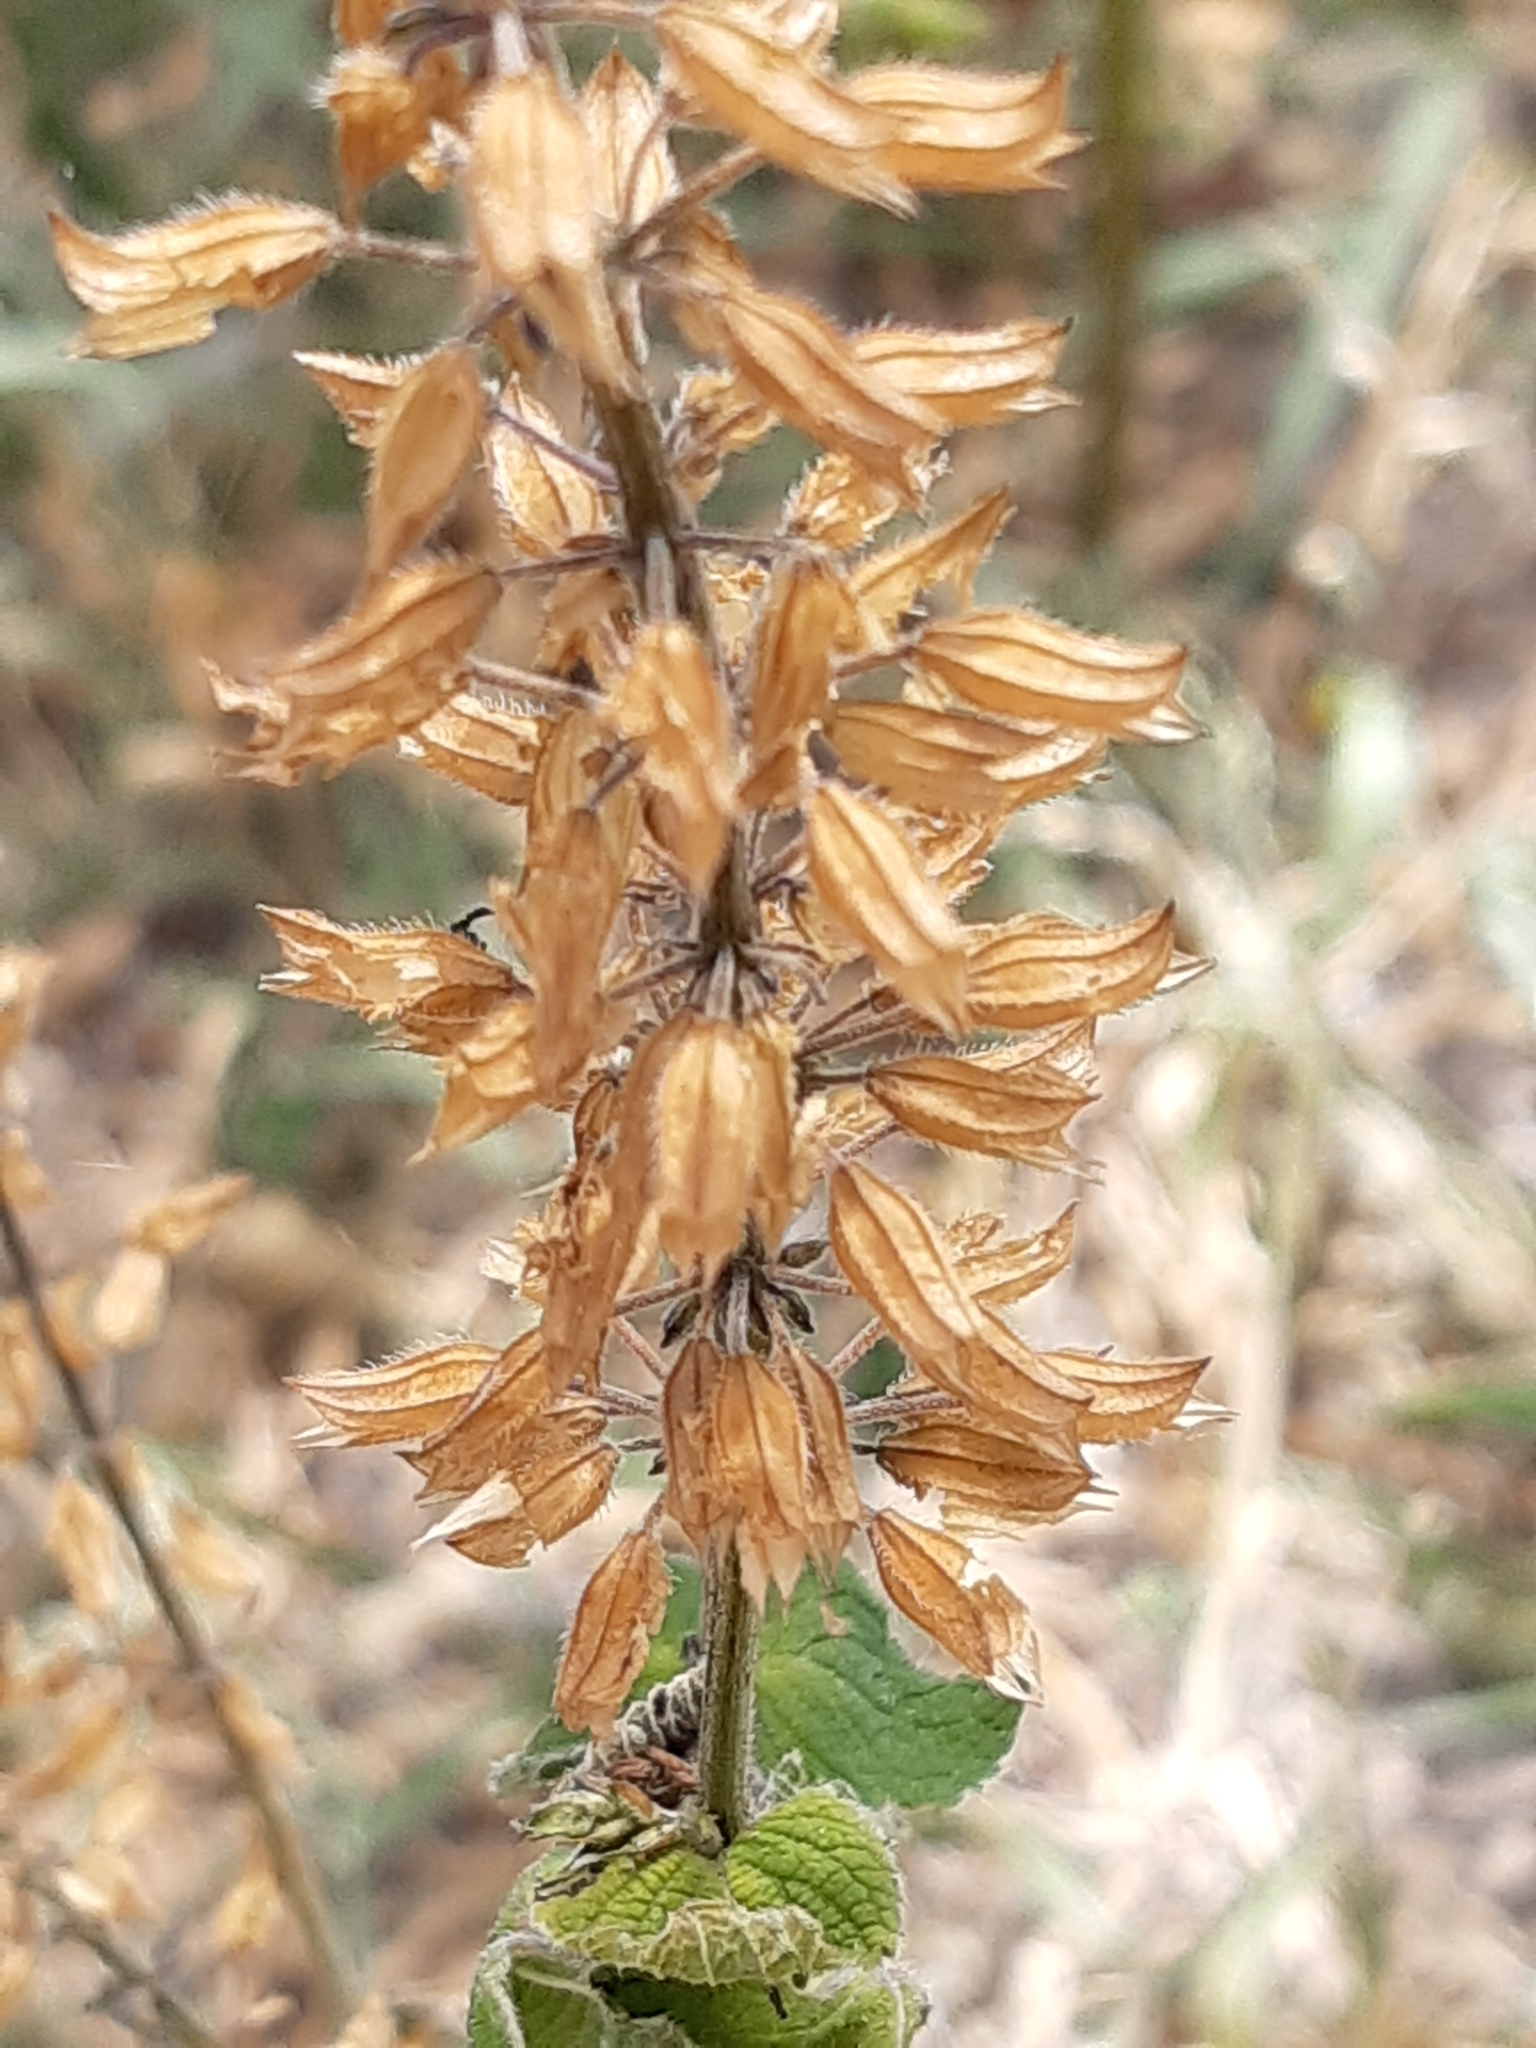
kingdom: Plantae
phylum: Tracheophyta
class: Magnoliopsida
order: Lamiales
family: Lamiaceae
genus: Salvia
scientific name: Salvia tiliifolia
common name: Lindenleaf sage
